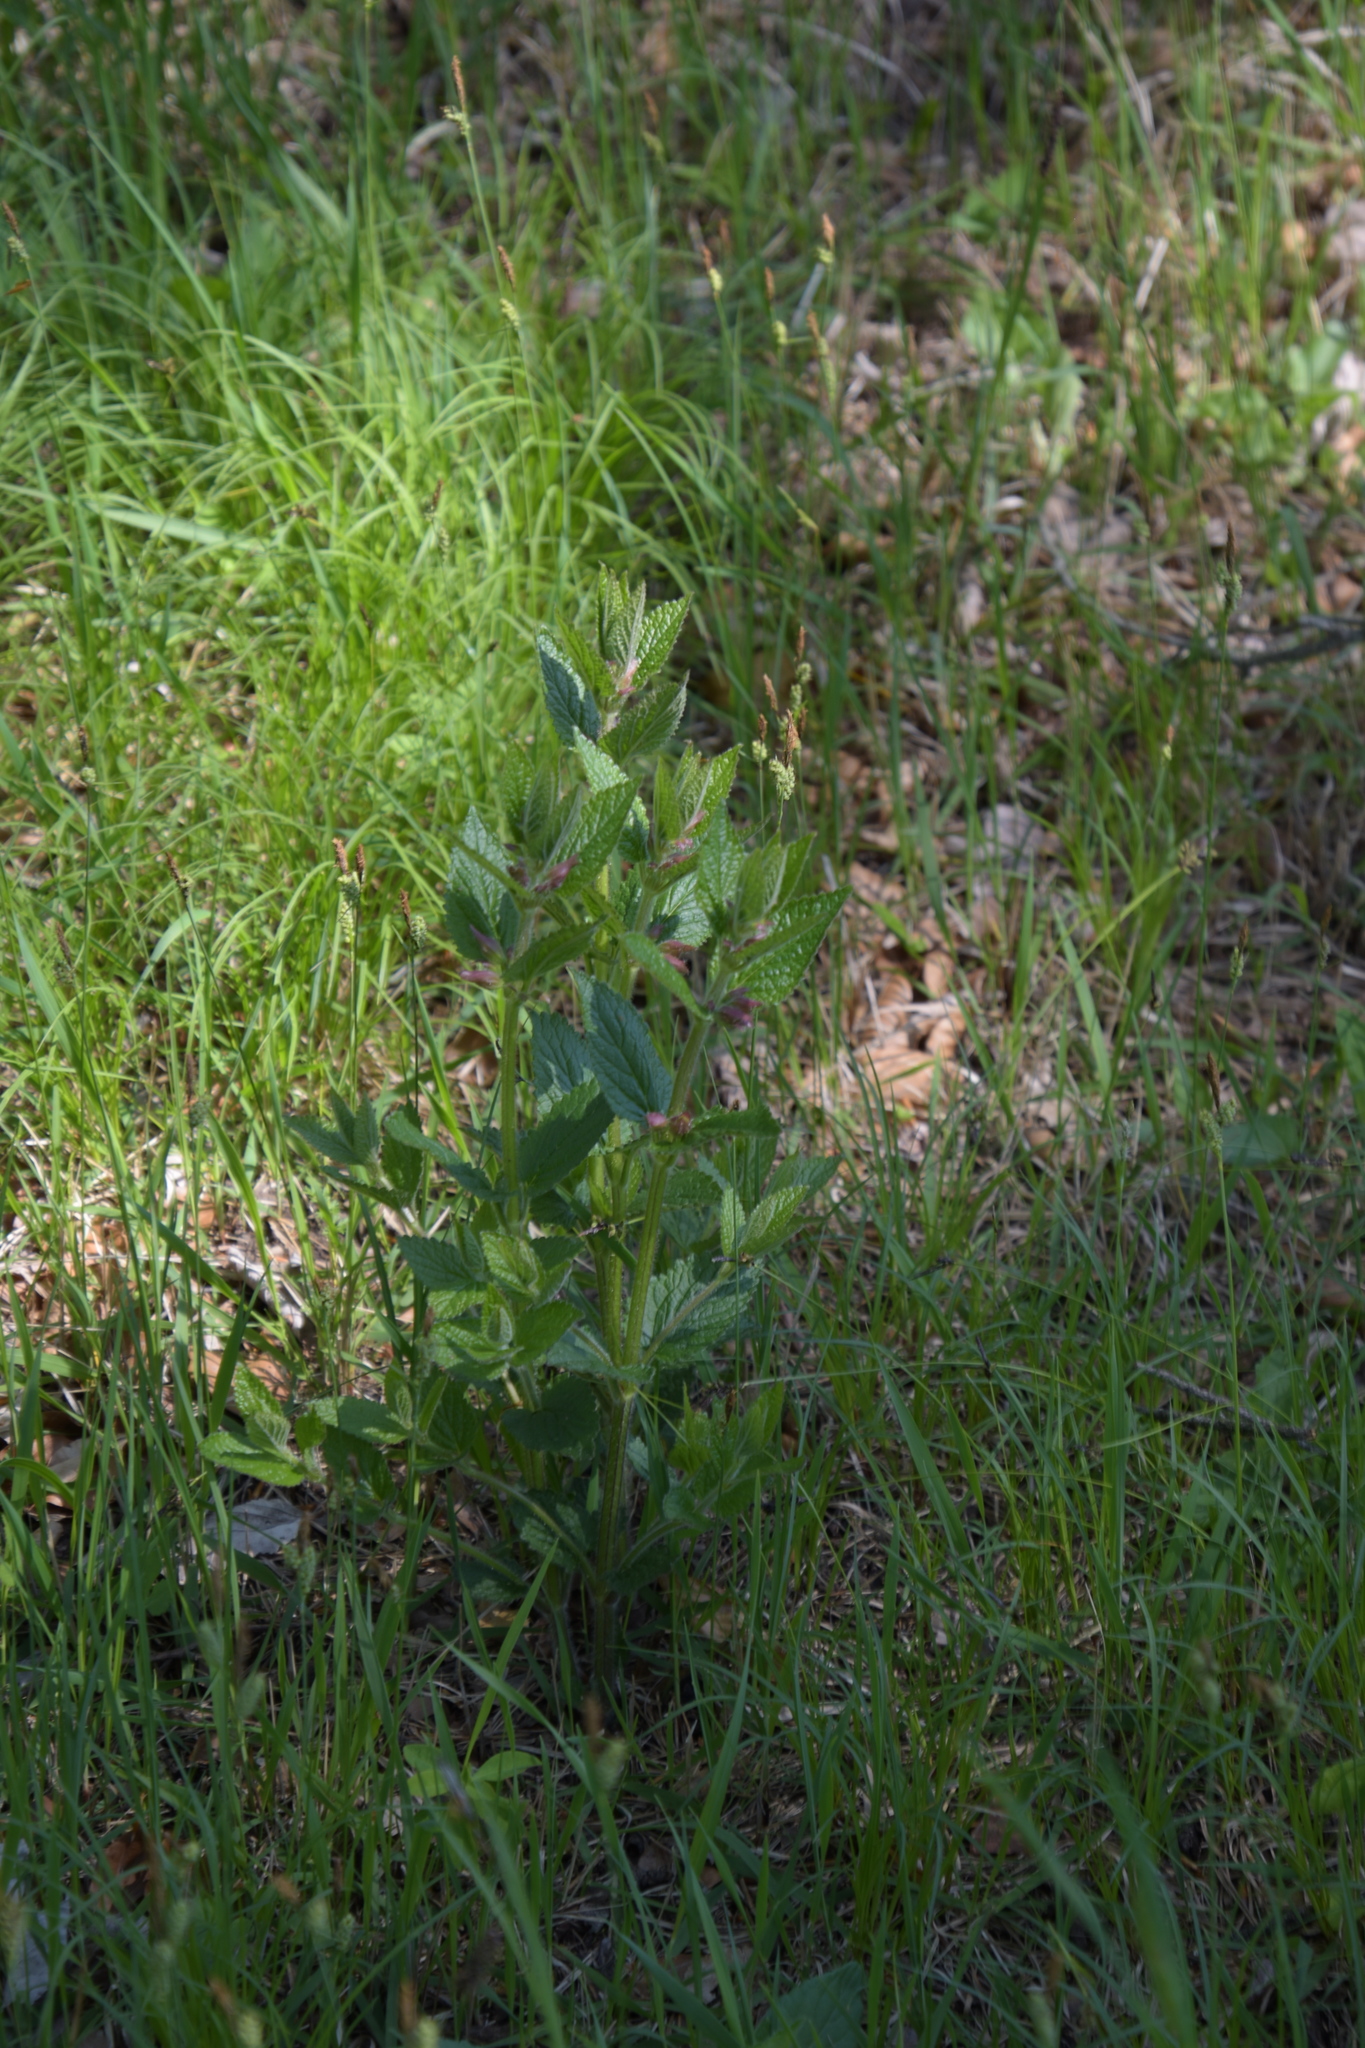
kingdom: Plantae
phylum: Tracheophyta
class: Magnoliopsida
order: Lamiales
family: Lamiaceae
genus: Melittis
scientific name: Melittis melissophyllum
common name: Bastard balm
